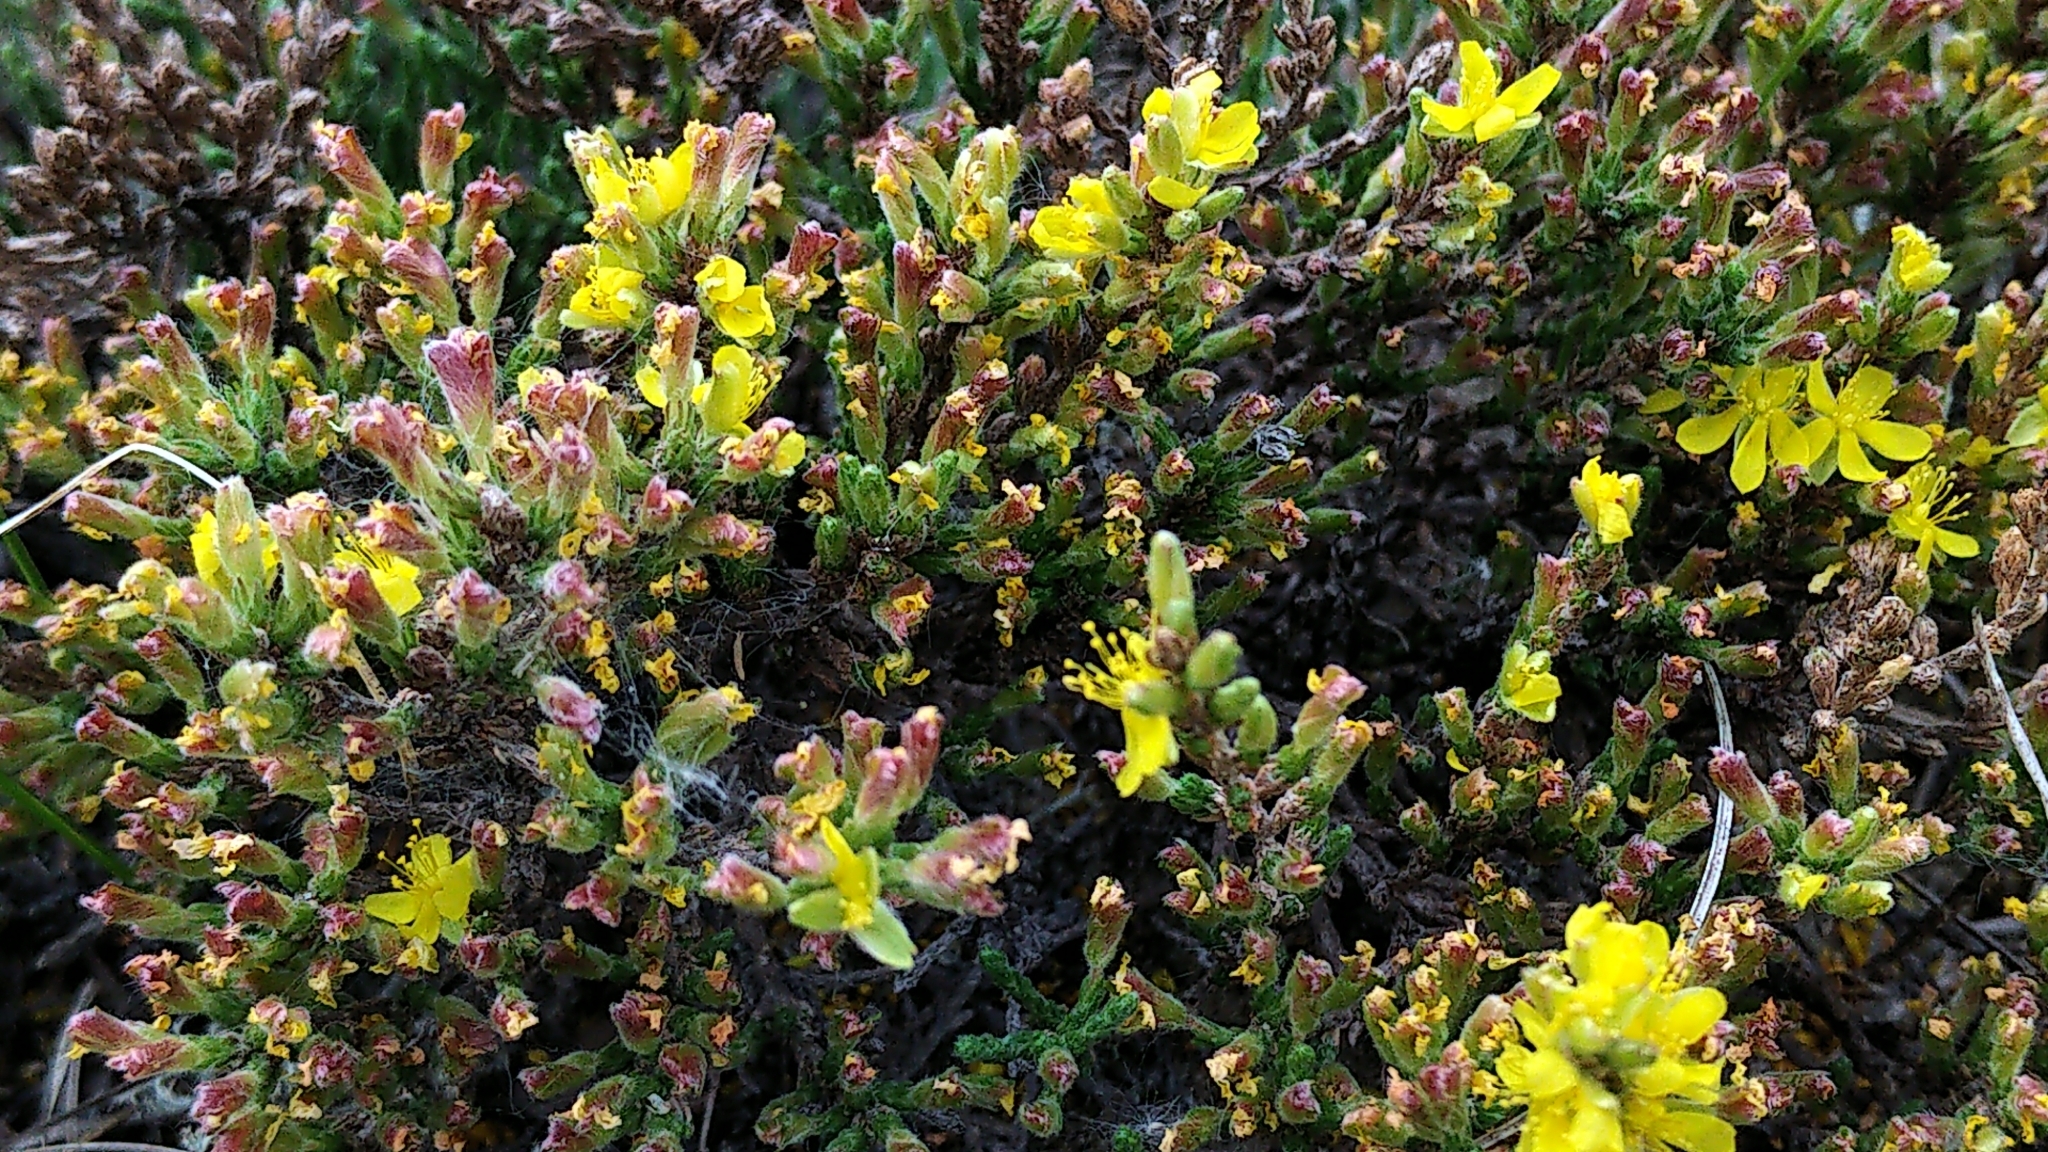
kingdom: Plantae
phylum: Tracheophyta
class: Magnoliopsida
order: Malvales
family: Cistaceae
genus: Hudsonia
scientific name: Hudsonia tomentosa
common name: Beach-heath
